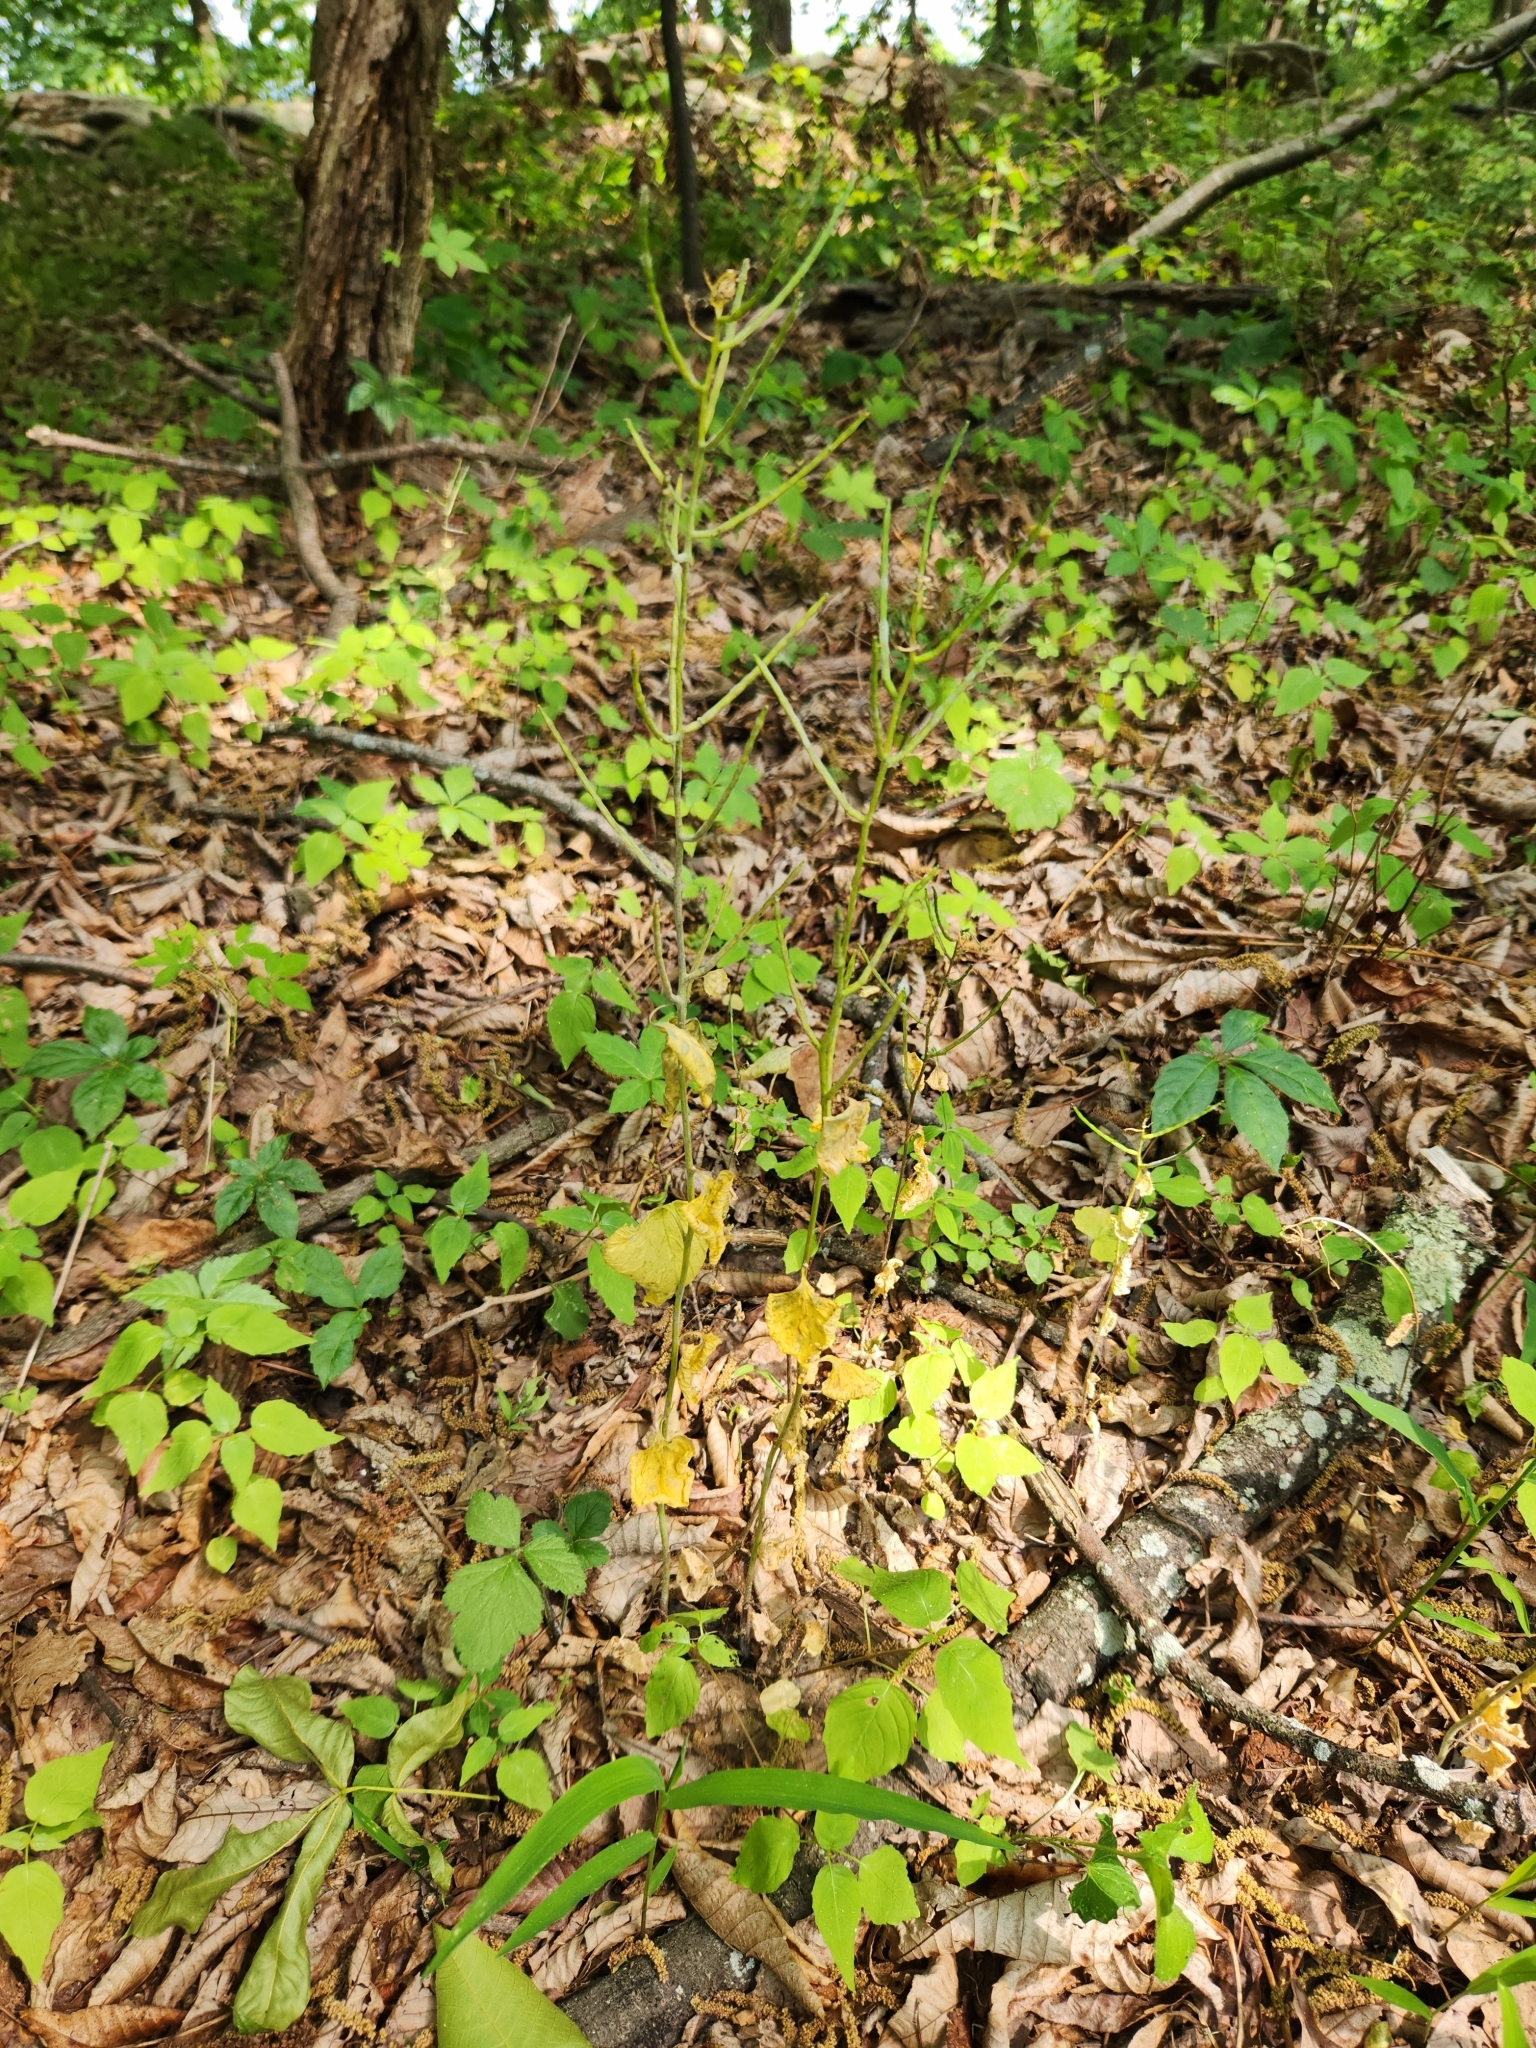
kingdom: Plantae
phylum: Tracheophyta
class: Magnoliopsida
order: Brassicales
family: Brassicaceae
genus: Alliaria
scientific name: Alliaria petiolata
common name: Garlic mustard
